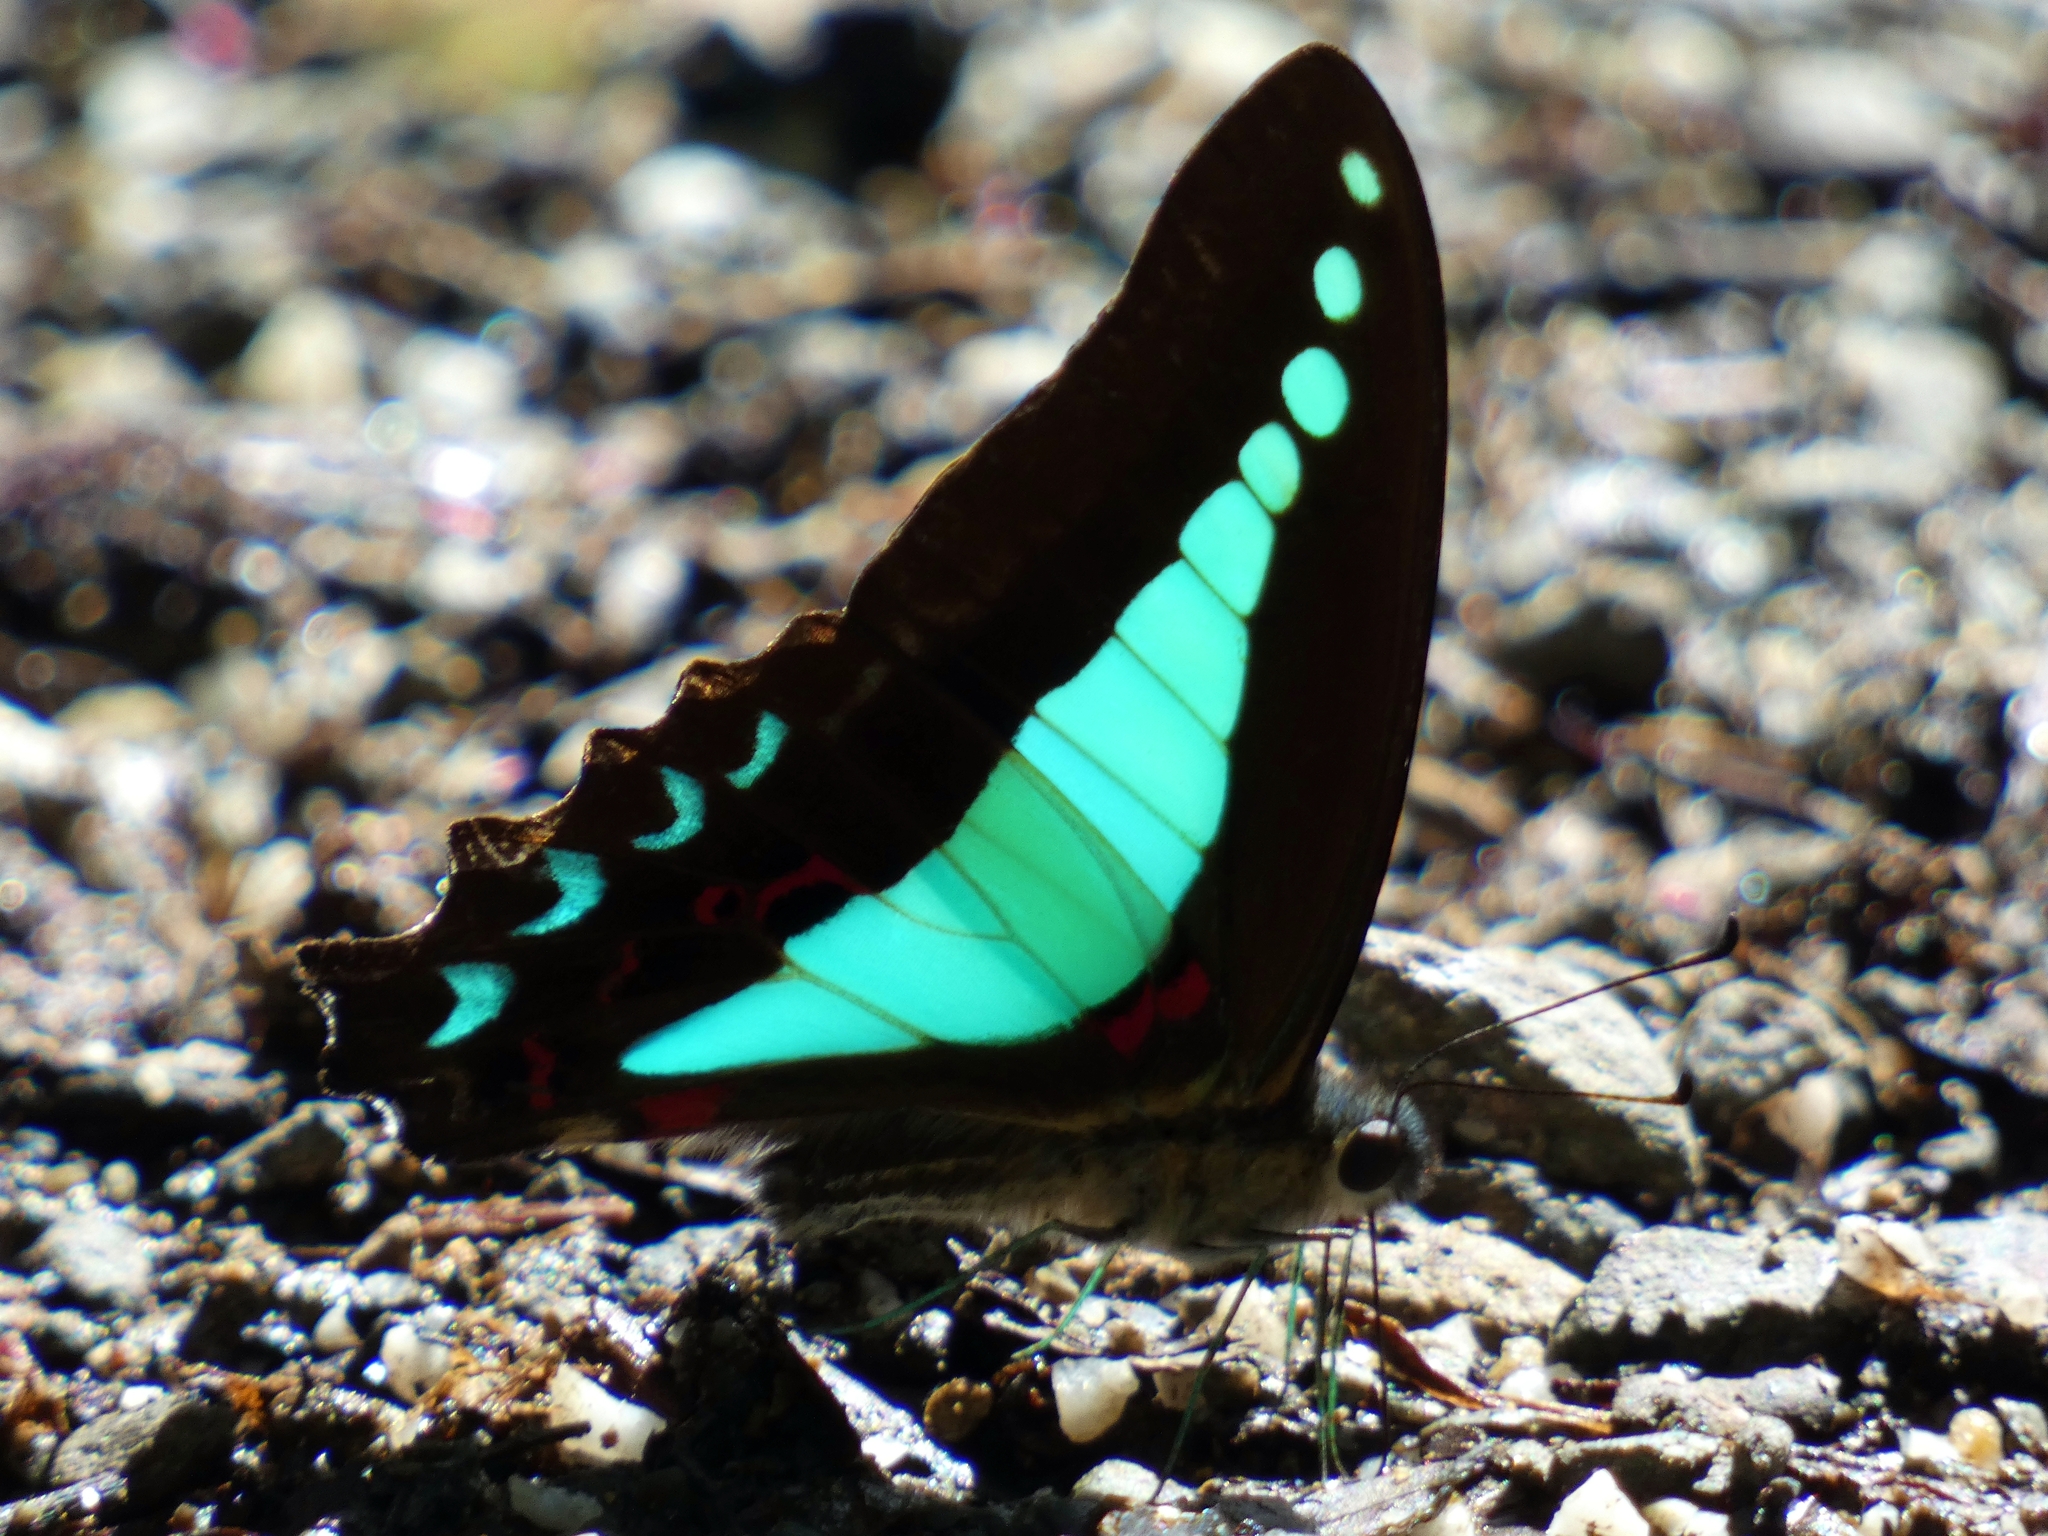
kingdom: Animalia
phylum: Arthropoda
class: Insecta
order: Lepidoptera
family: Papilionidae
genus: Graphium
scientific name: Graphium
